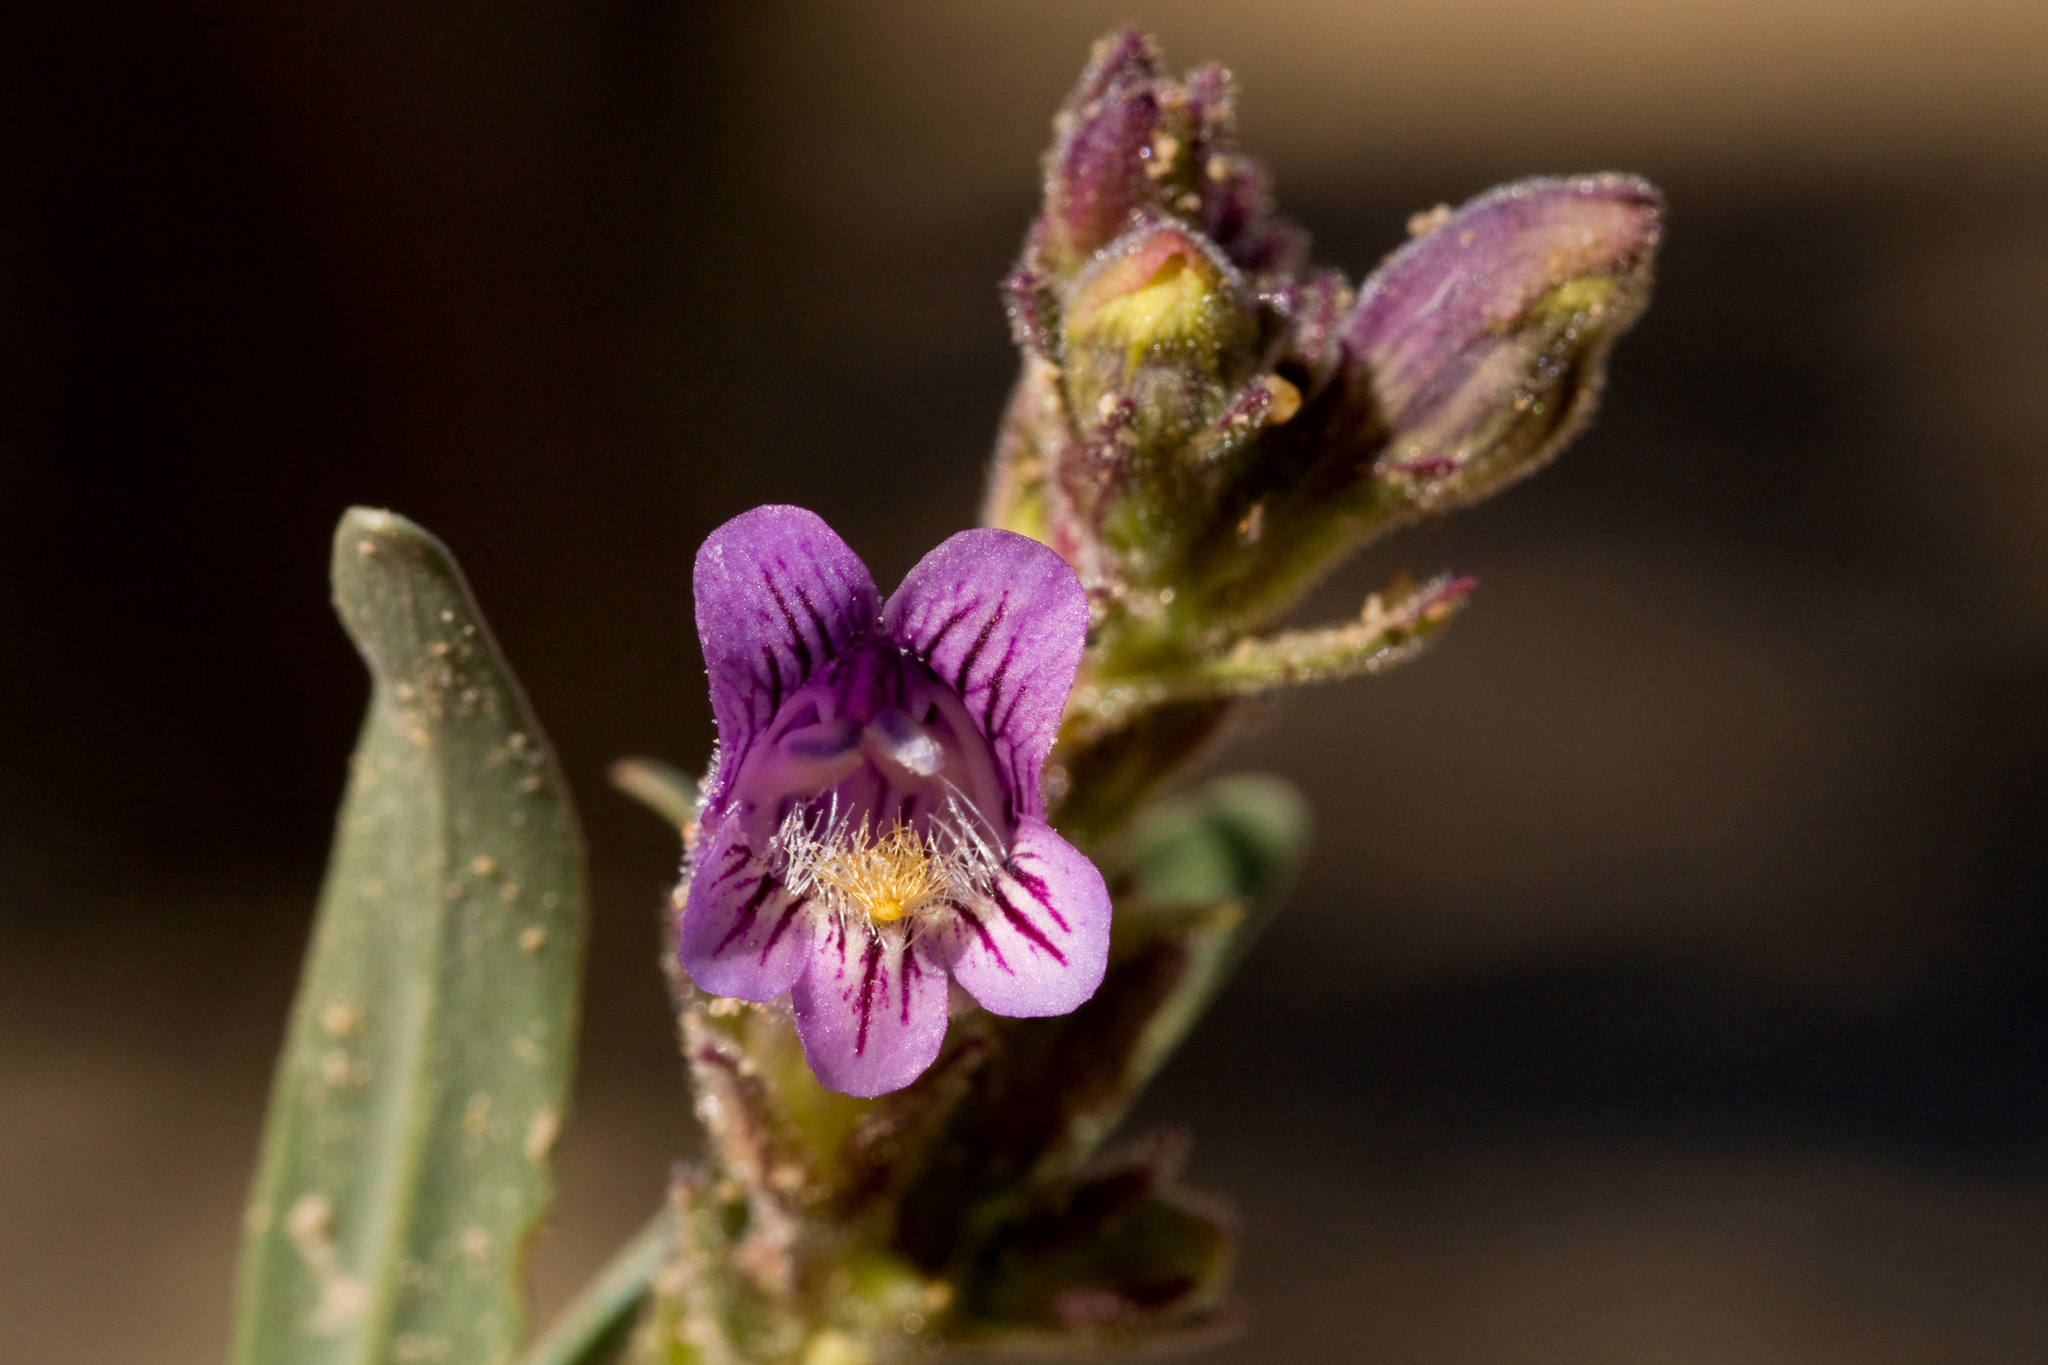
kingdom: Plantae
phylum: Tracheophyta
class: Magnoliopsida
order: Lamiales
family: Plantaginaceae
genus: Penstemon
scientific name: Penstemon breviculus
